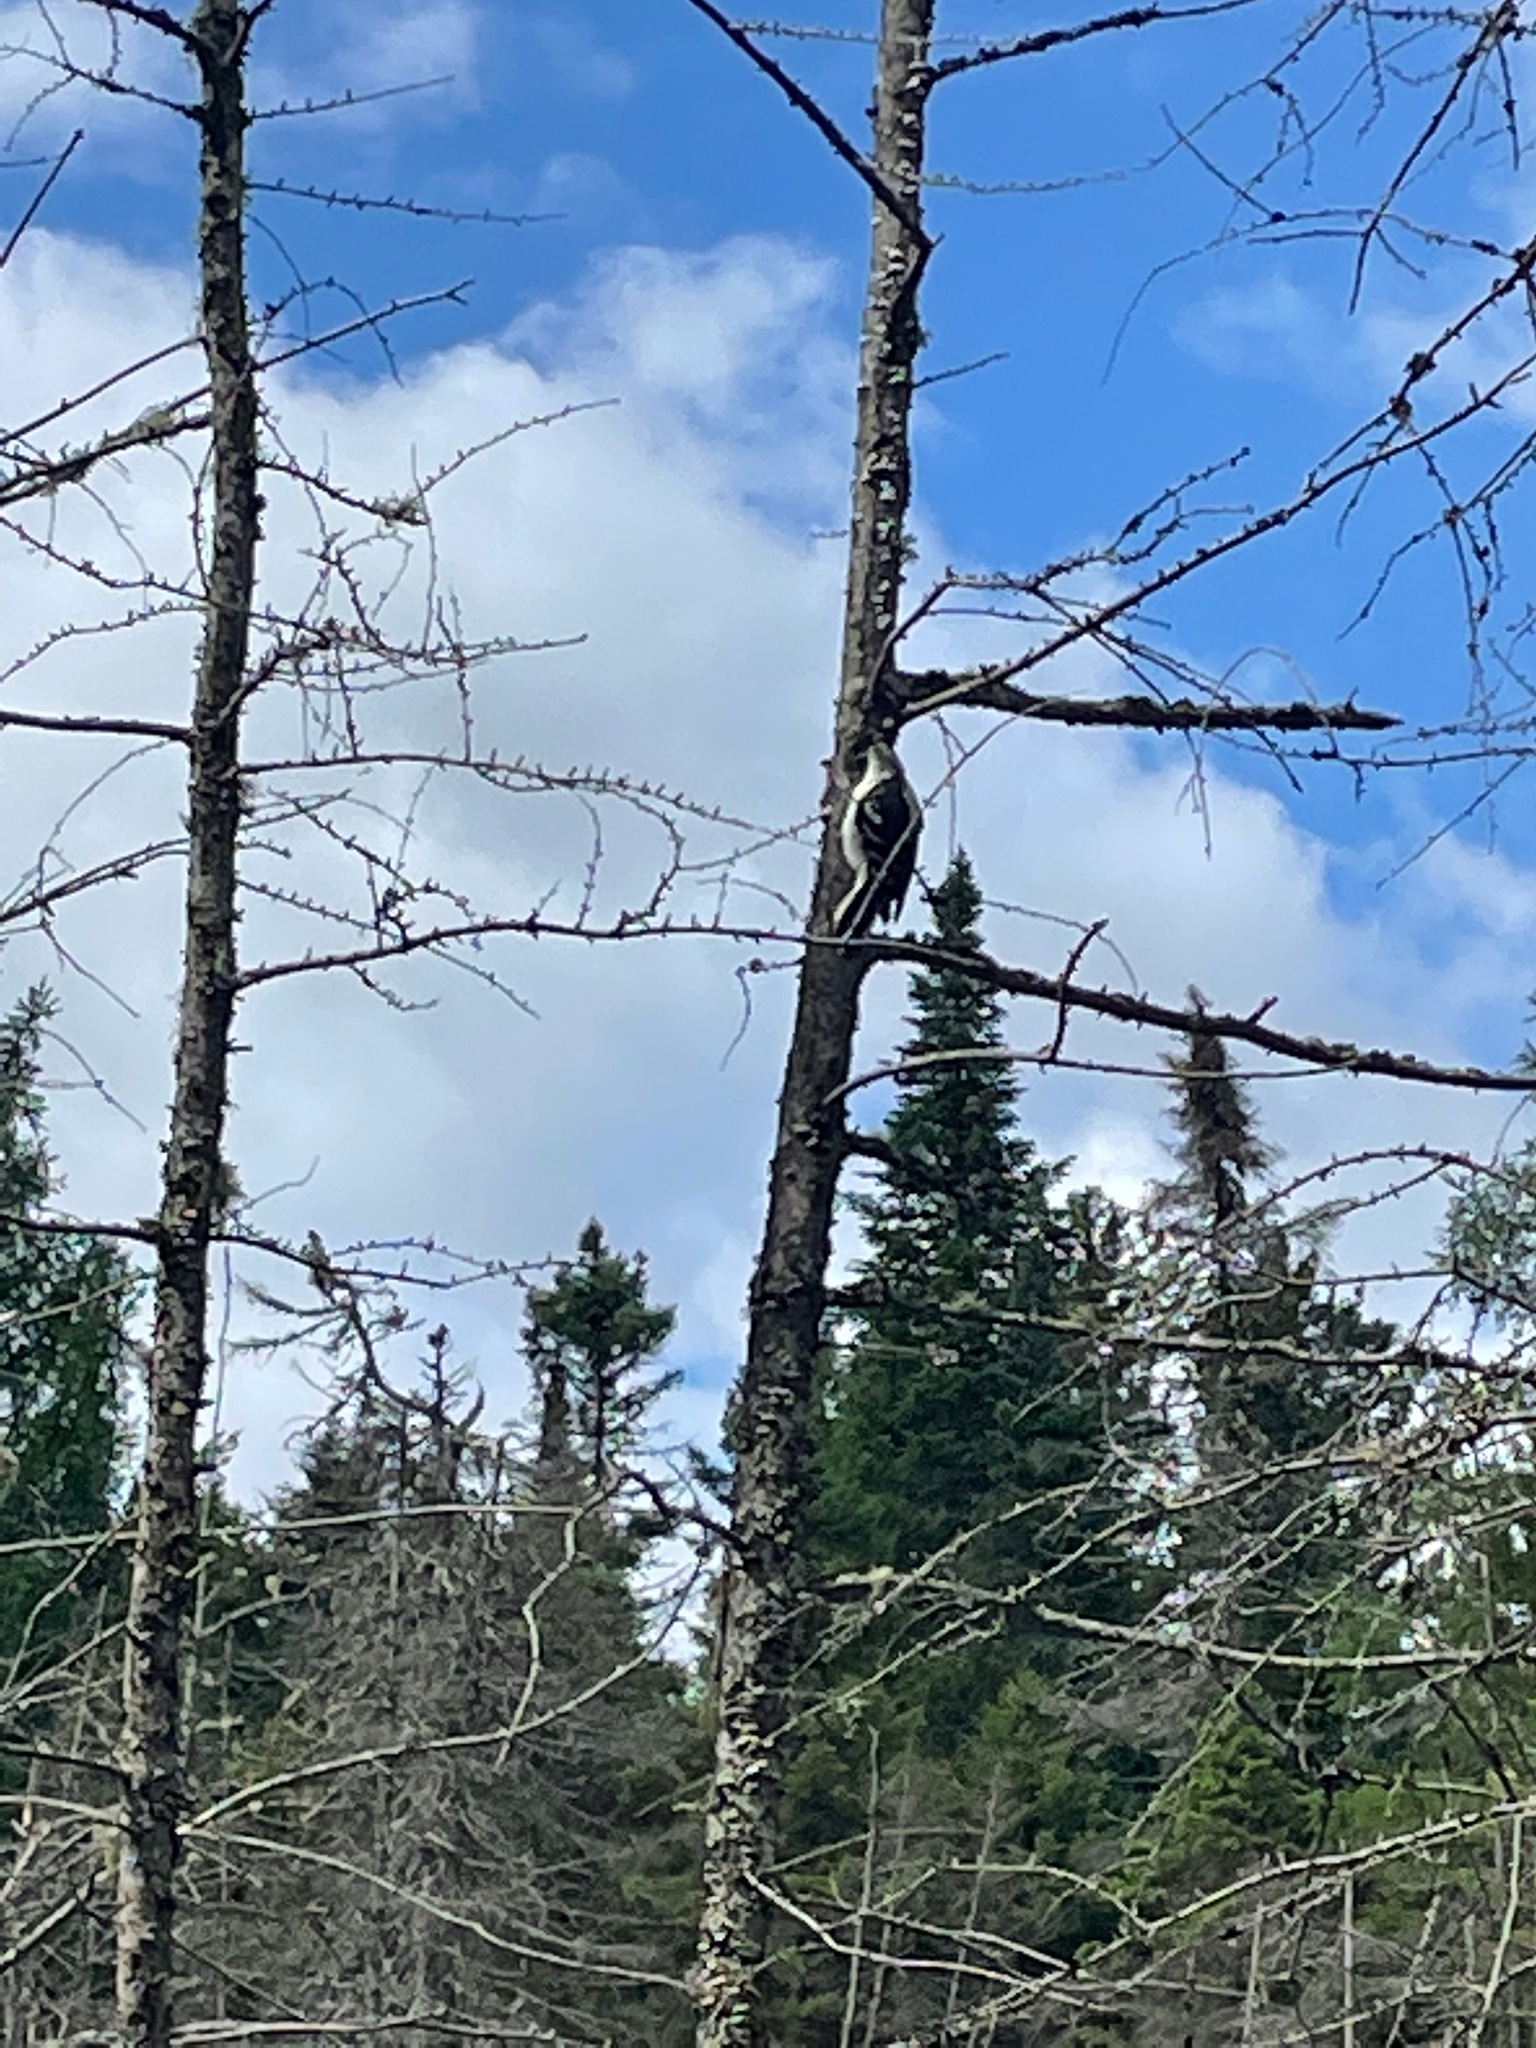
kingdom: Animalia
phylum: Chordata
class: Aves
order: Piciformes
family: Picidae
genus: Leuconotopicus
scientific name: Leuconotopicus villosus
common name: Hairy woodpecker
